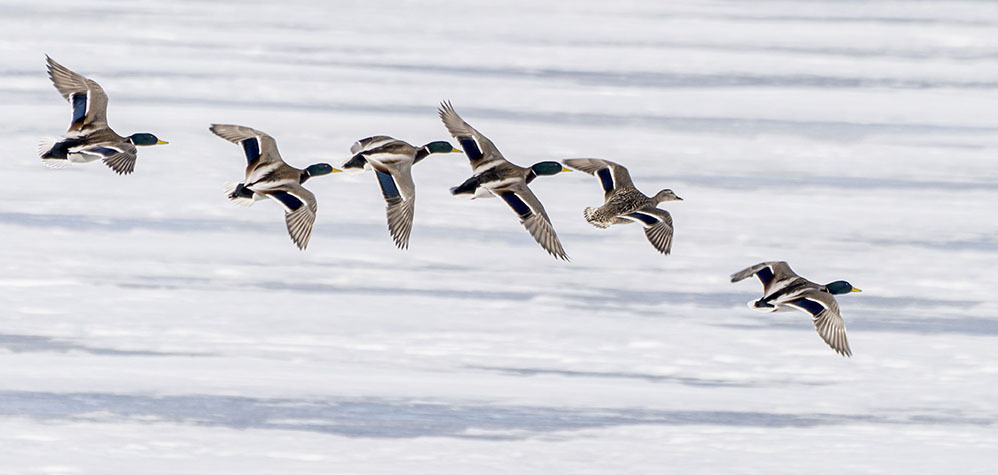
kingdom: Animalia
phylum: Chordata
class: Aves
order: Anseriformes
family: Anatidae
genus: Anas
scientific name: Anas platyrhynchos
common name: Mallard
